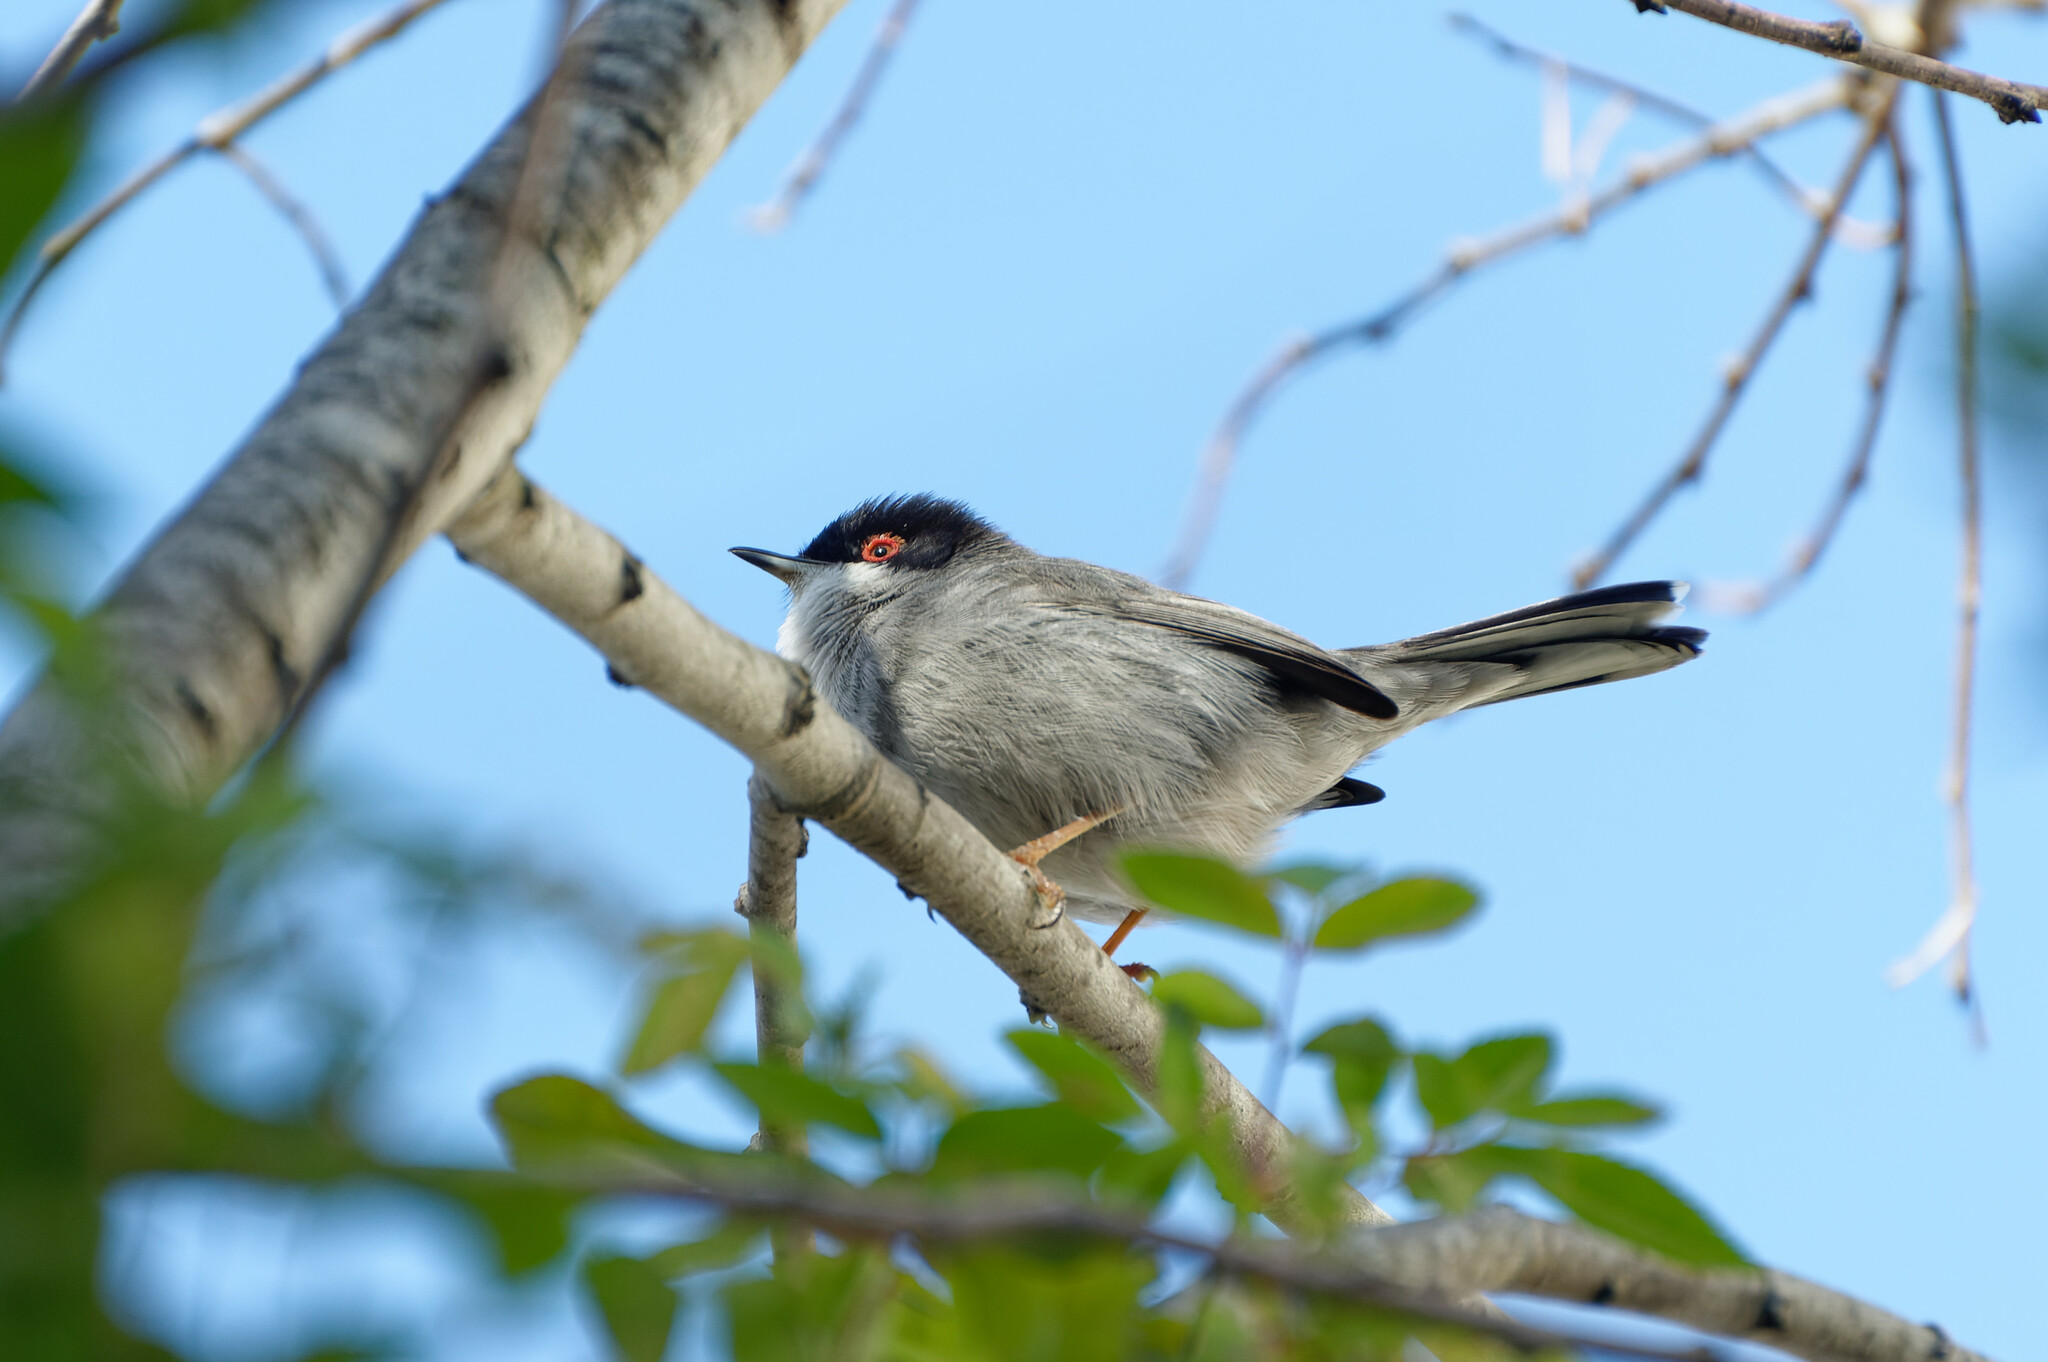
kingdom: Animalia
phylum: Chordata
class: Aves
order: Passeriformes
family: Sylviidae
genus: Curruca
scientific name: Curruca melanocephala
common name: Sardinian warbler
